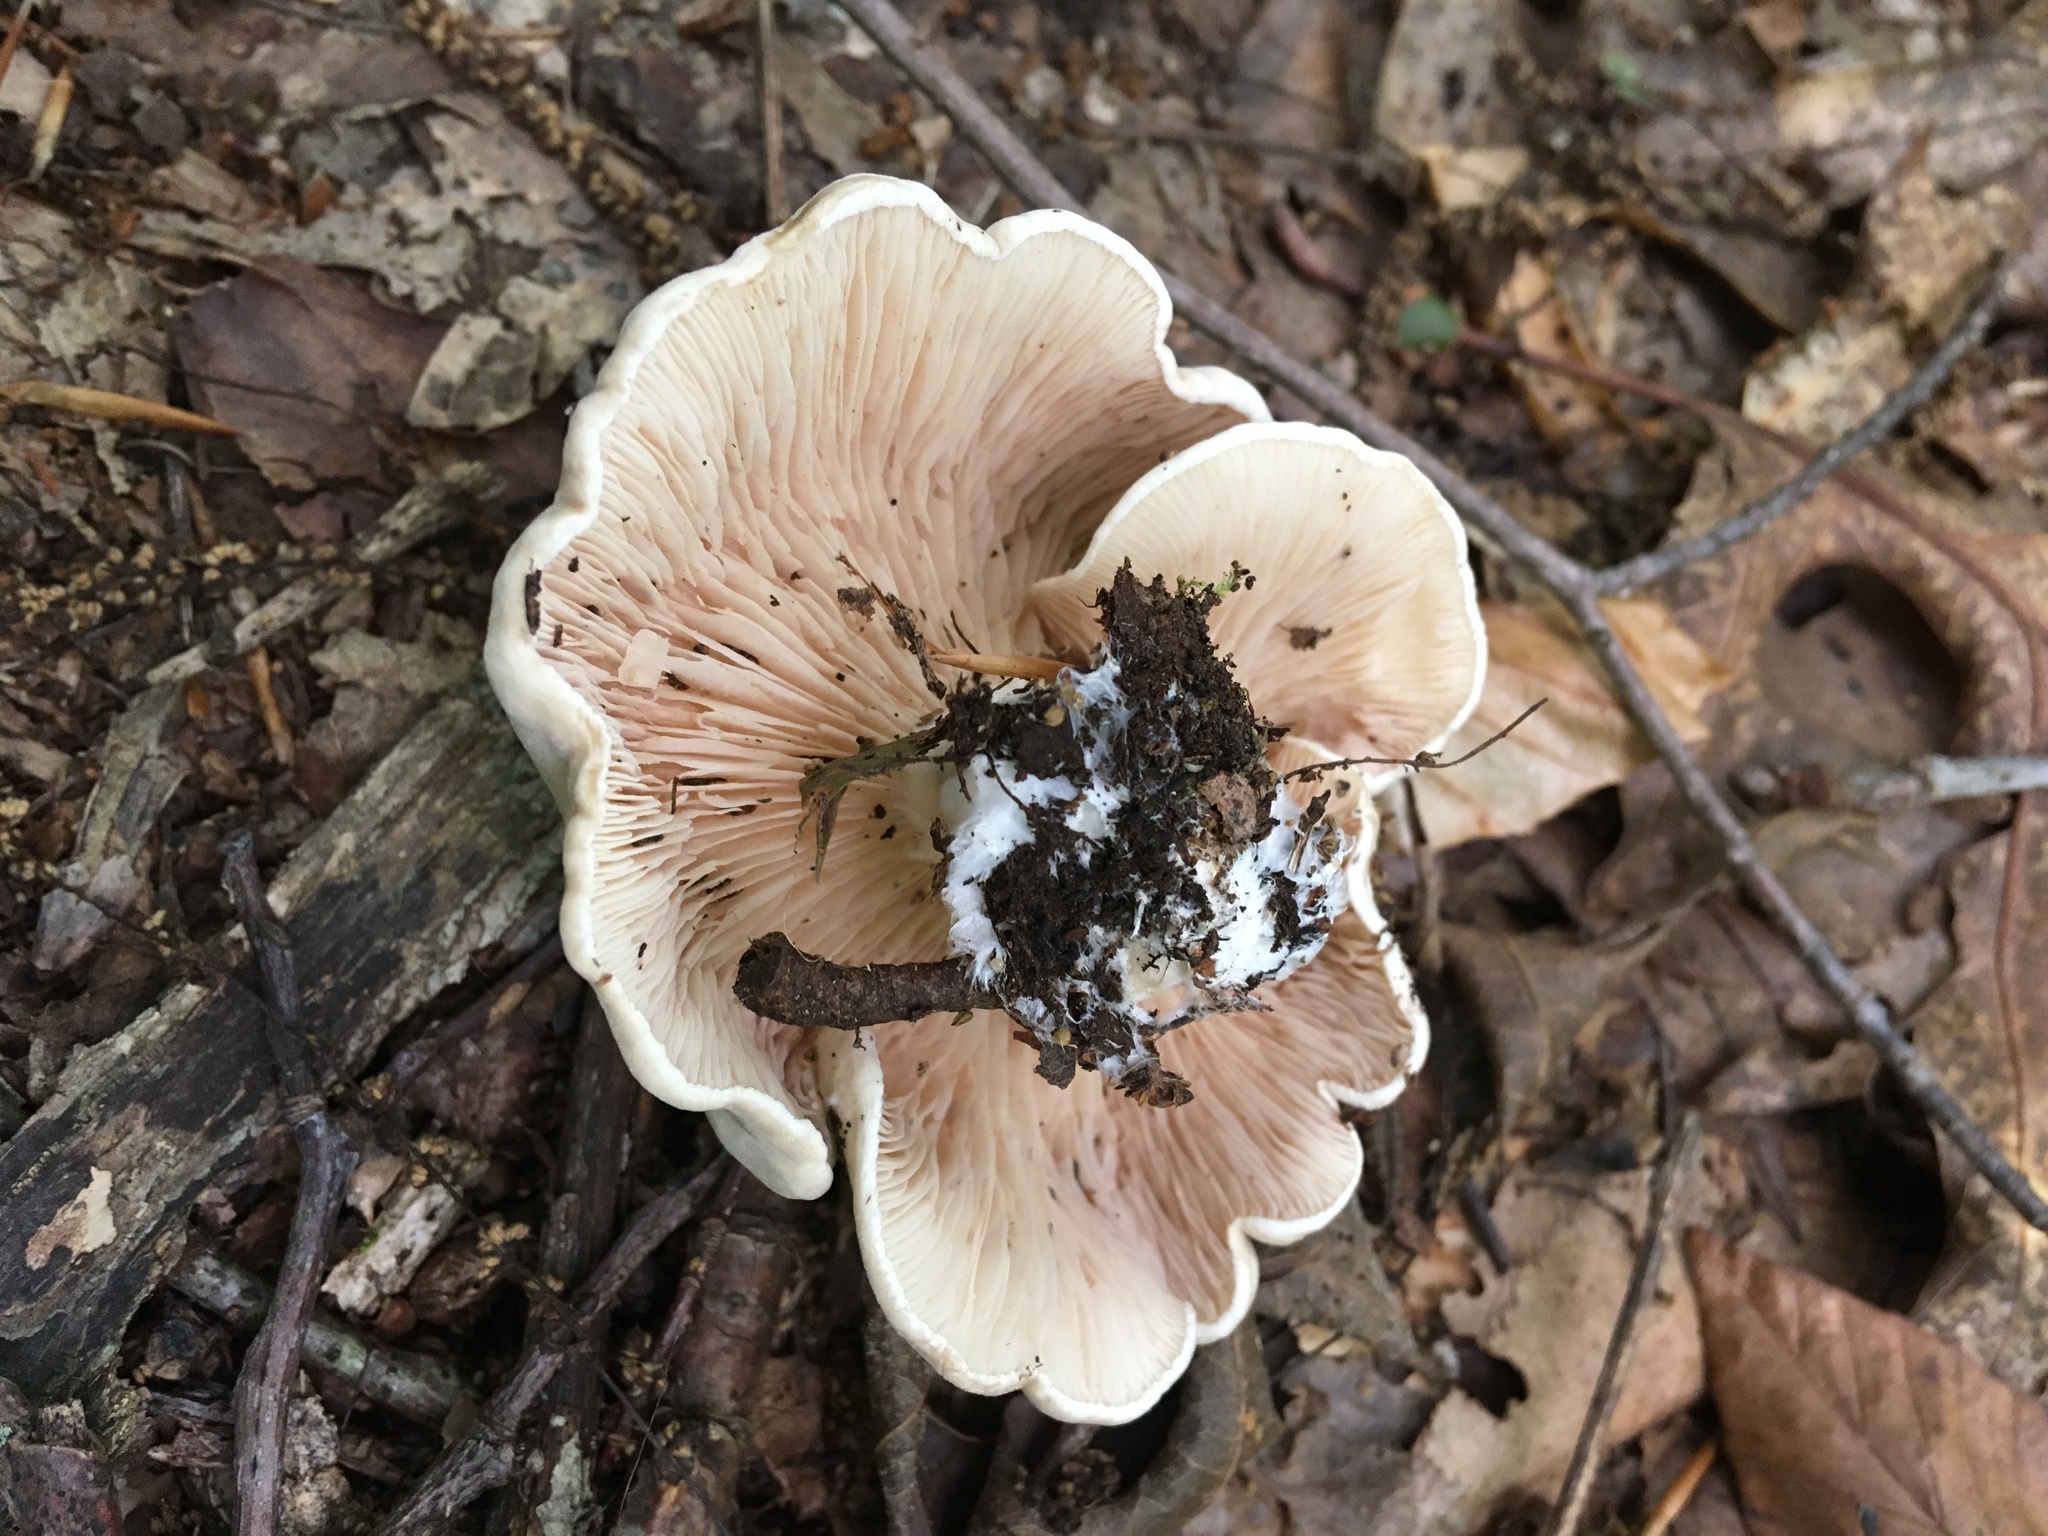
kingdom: Fungi
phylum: Basidiomycota
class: Agaricomycetes
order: Agaricales
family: Entolomataceae
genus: Clitopilus
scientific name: Clitopilus prunulus
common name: The miller
